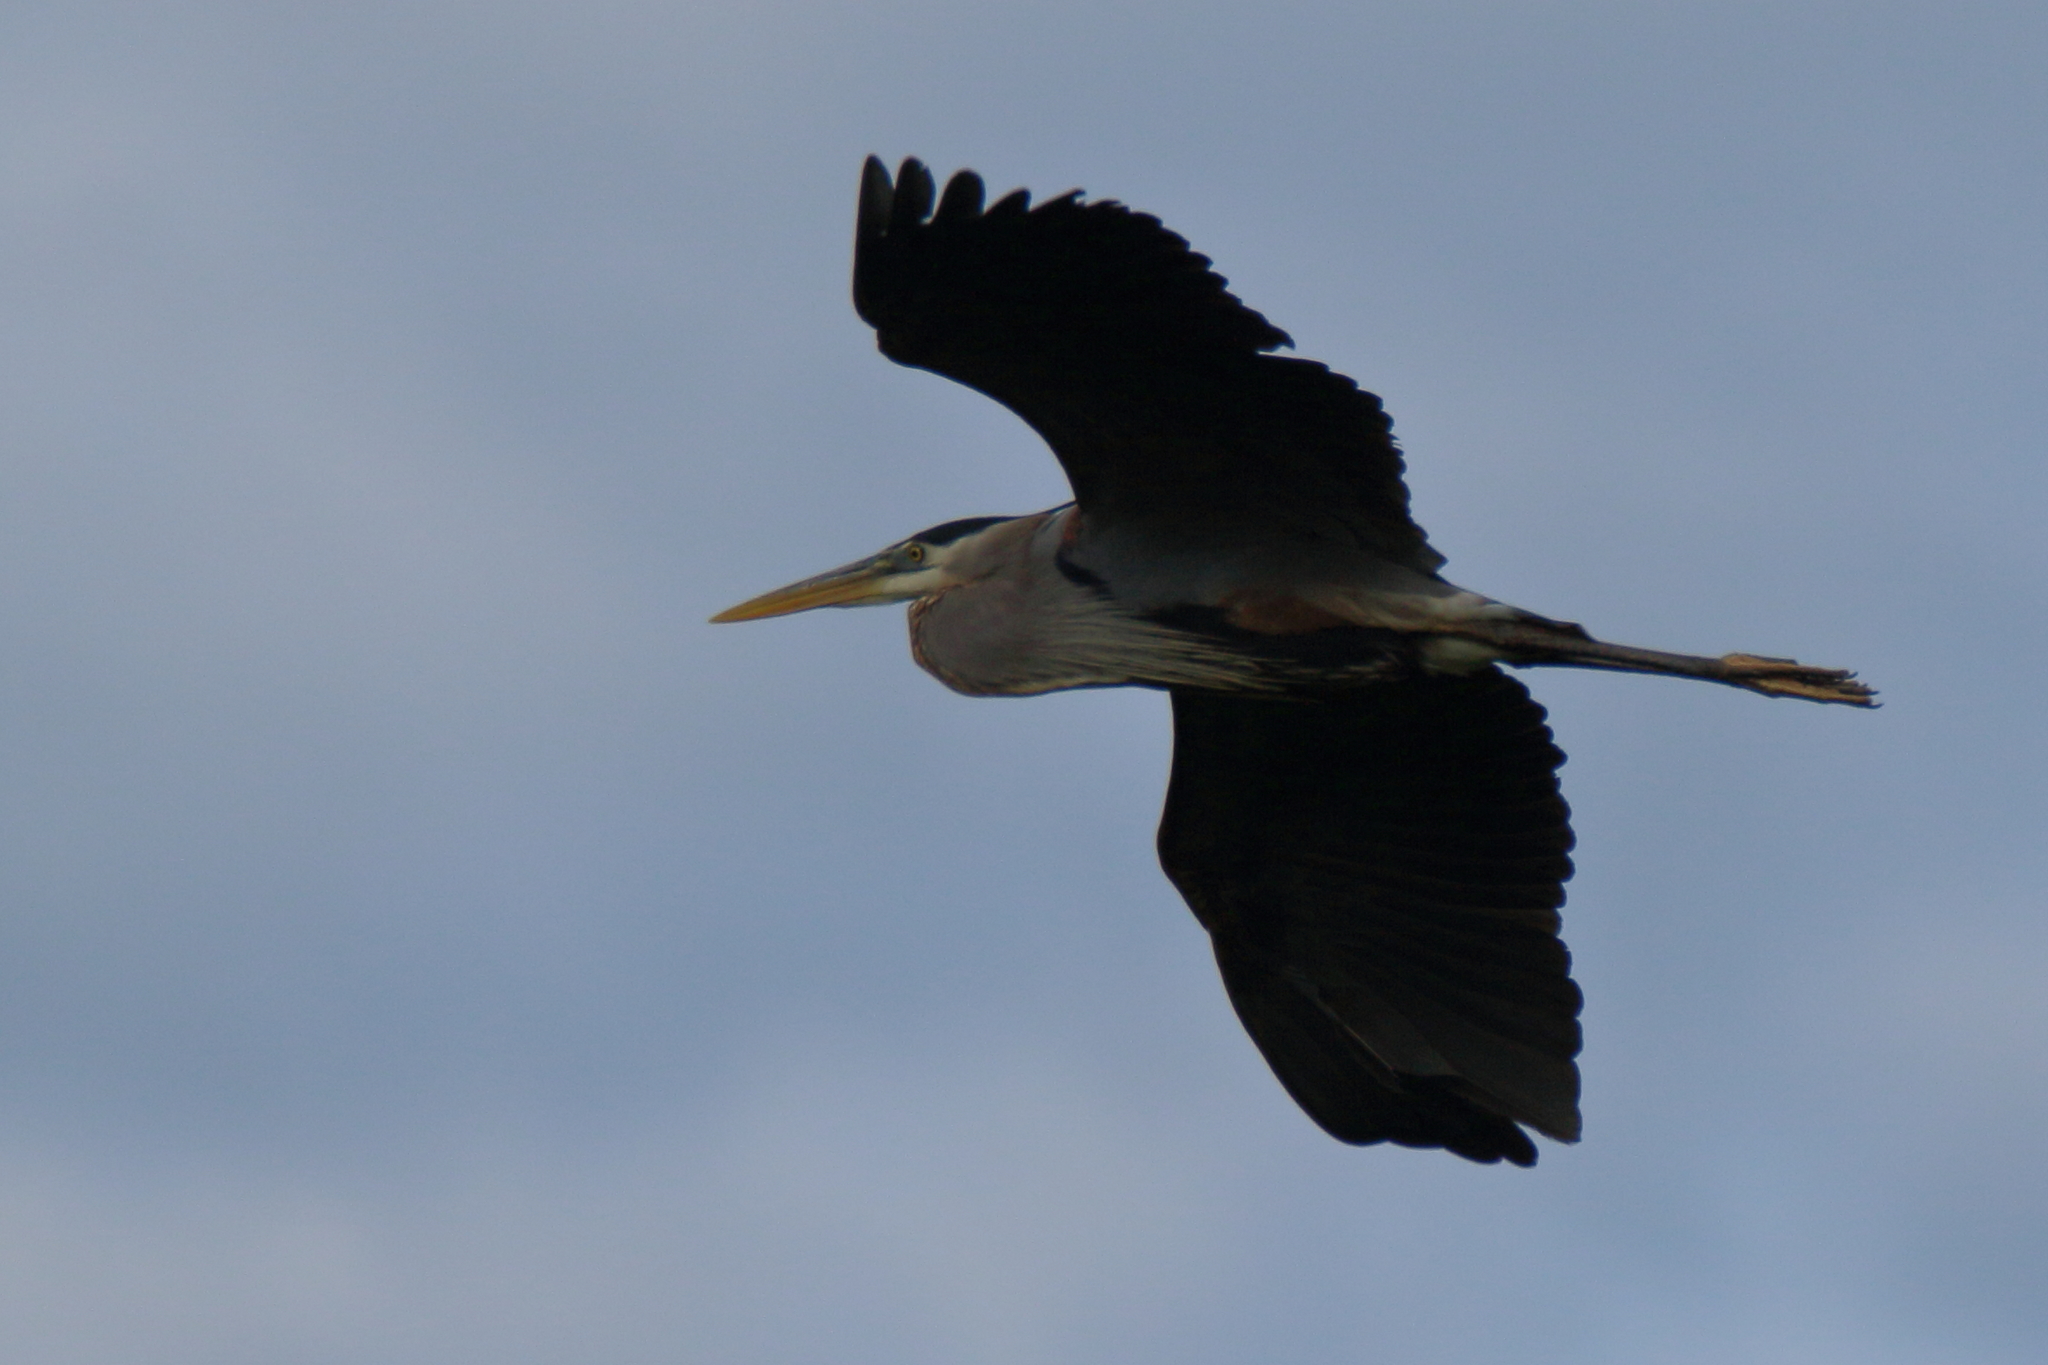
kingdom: Animalia
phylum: Chordata
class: Aves
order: Pelecaniformes
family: Ardeidae
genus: Ardea
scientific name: Ardea herodias
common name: Great blue heron
